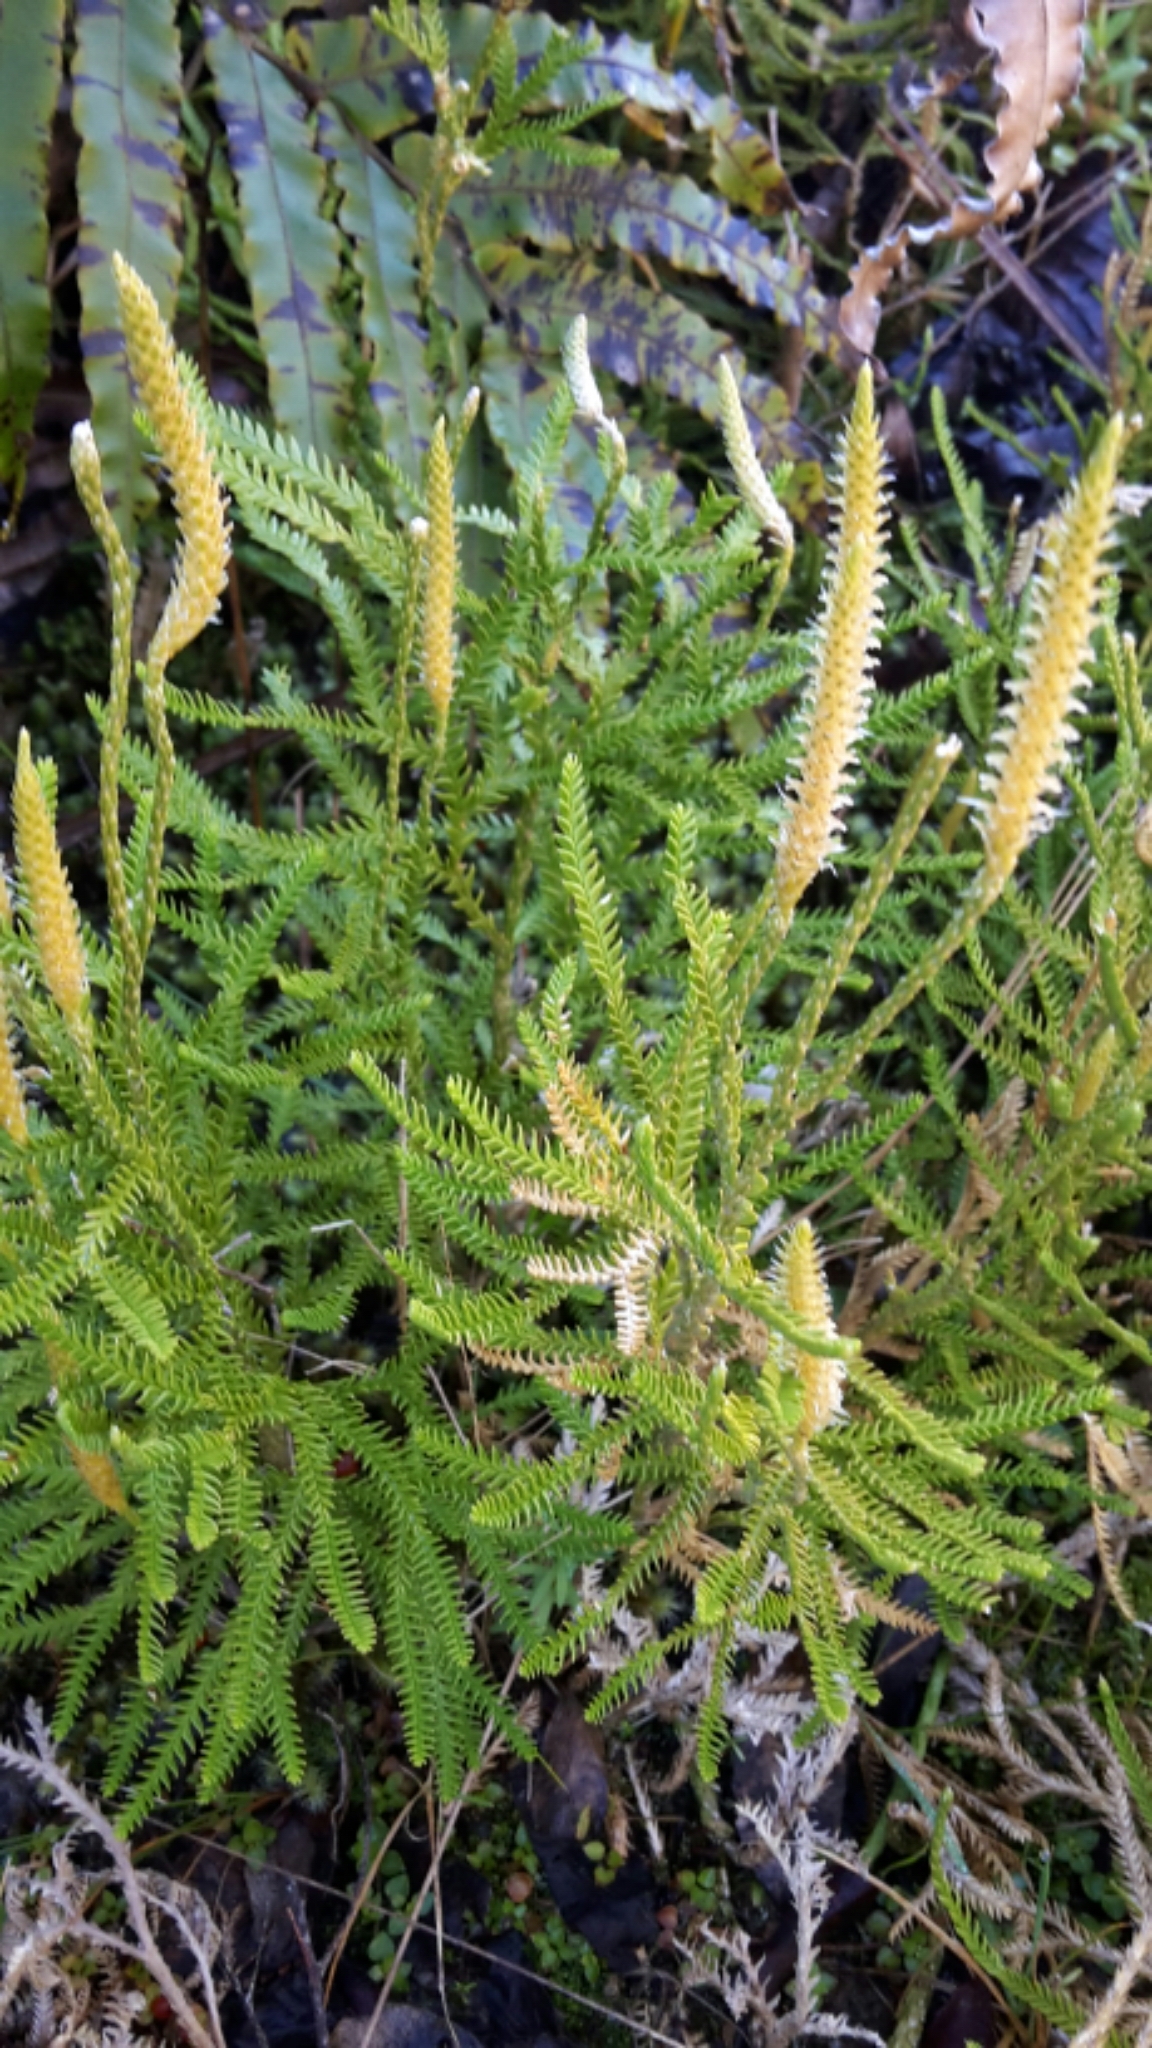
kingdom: Plantae
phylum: Tracheophyta
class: Lycopodiopsida
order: Lycopodiales
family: Lycopodiaceae
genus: Diphasium
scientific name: Diphasium scariosum
